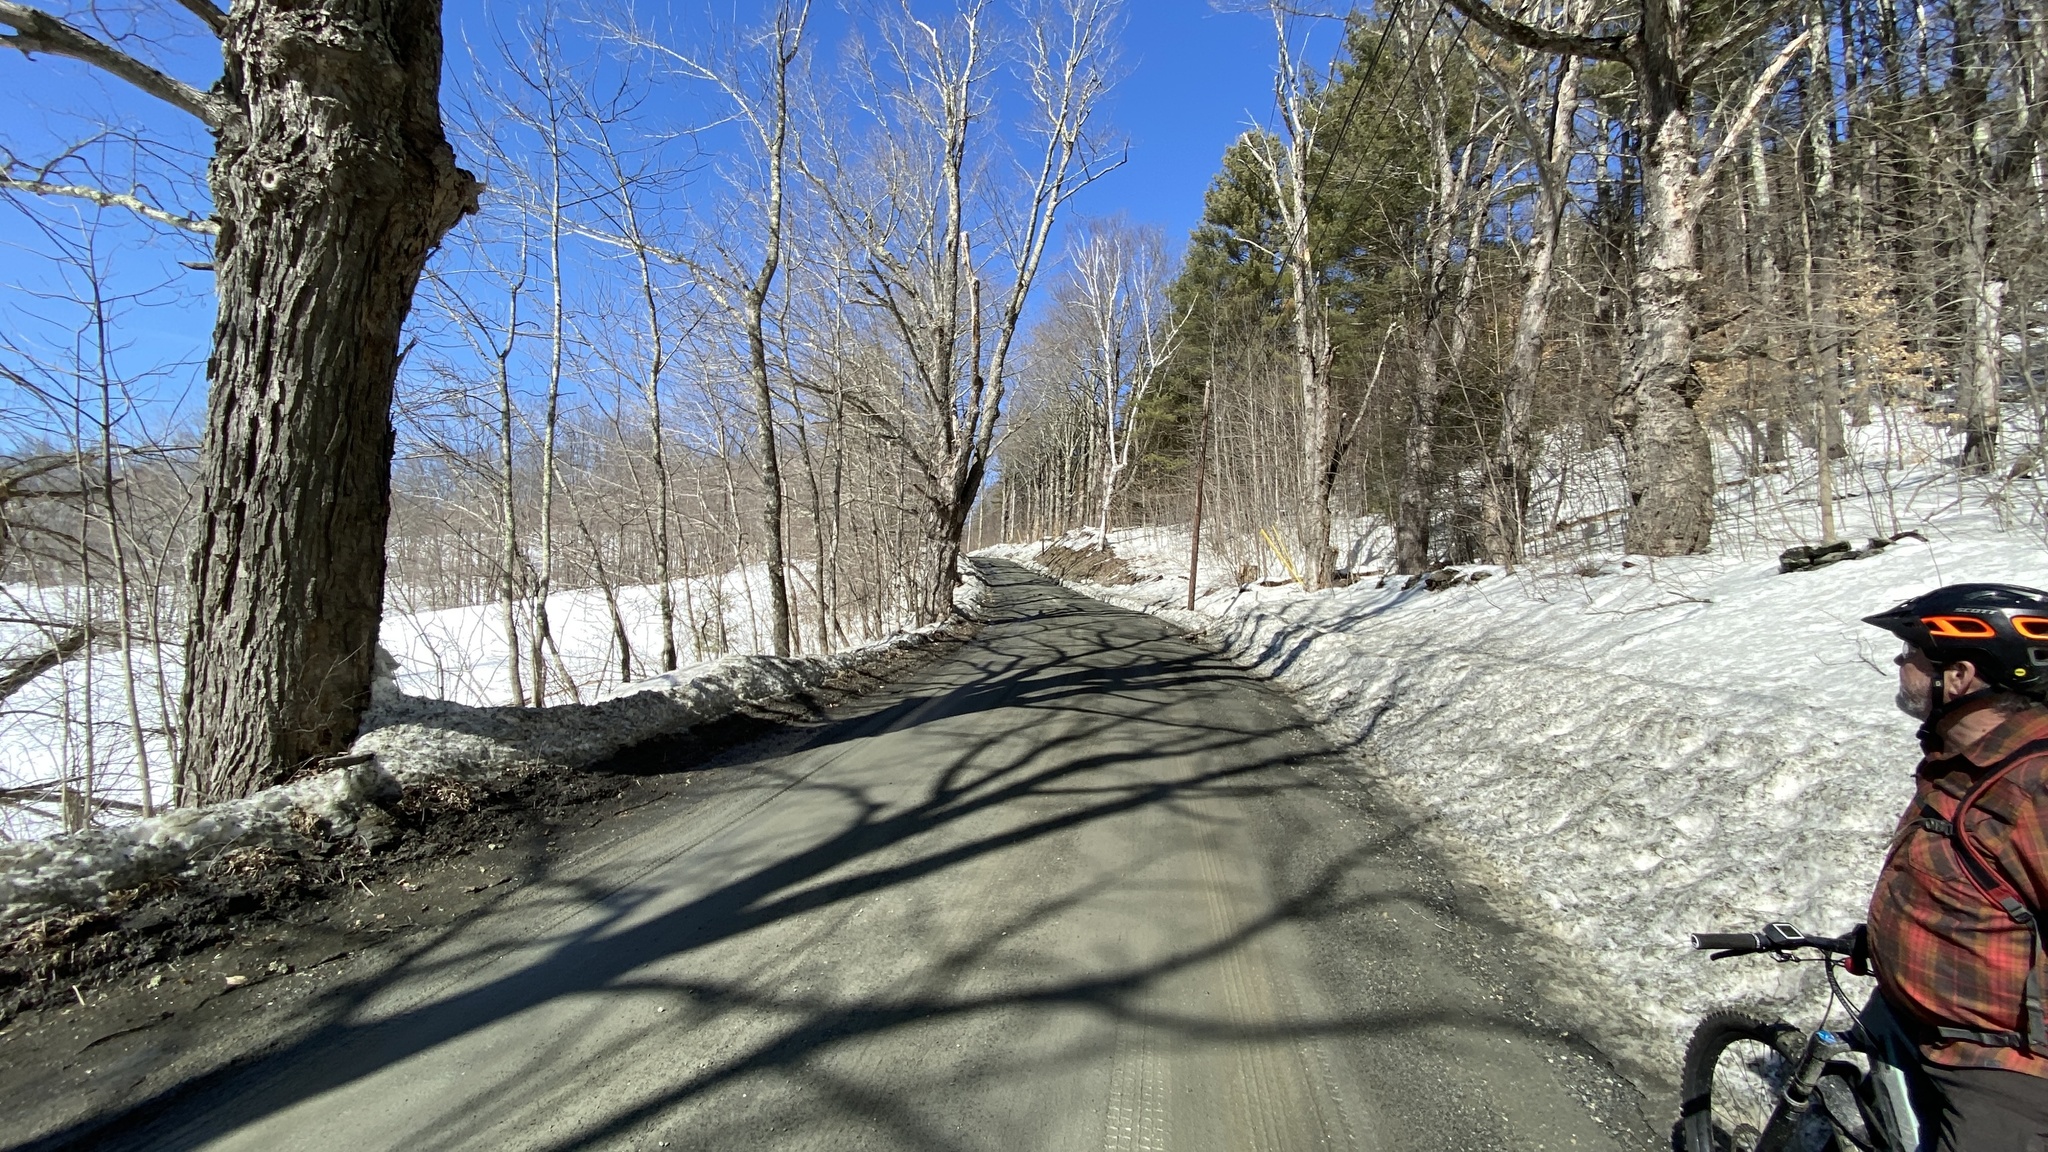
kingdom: Plantae
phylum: Tracheophyta
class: Magnoliopsida
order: Sapindales
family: Sapindaceae
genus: Acer
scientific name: Acer saccharum
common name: Sugar maple
